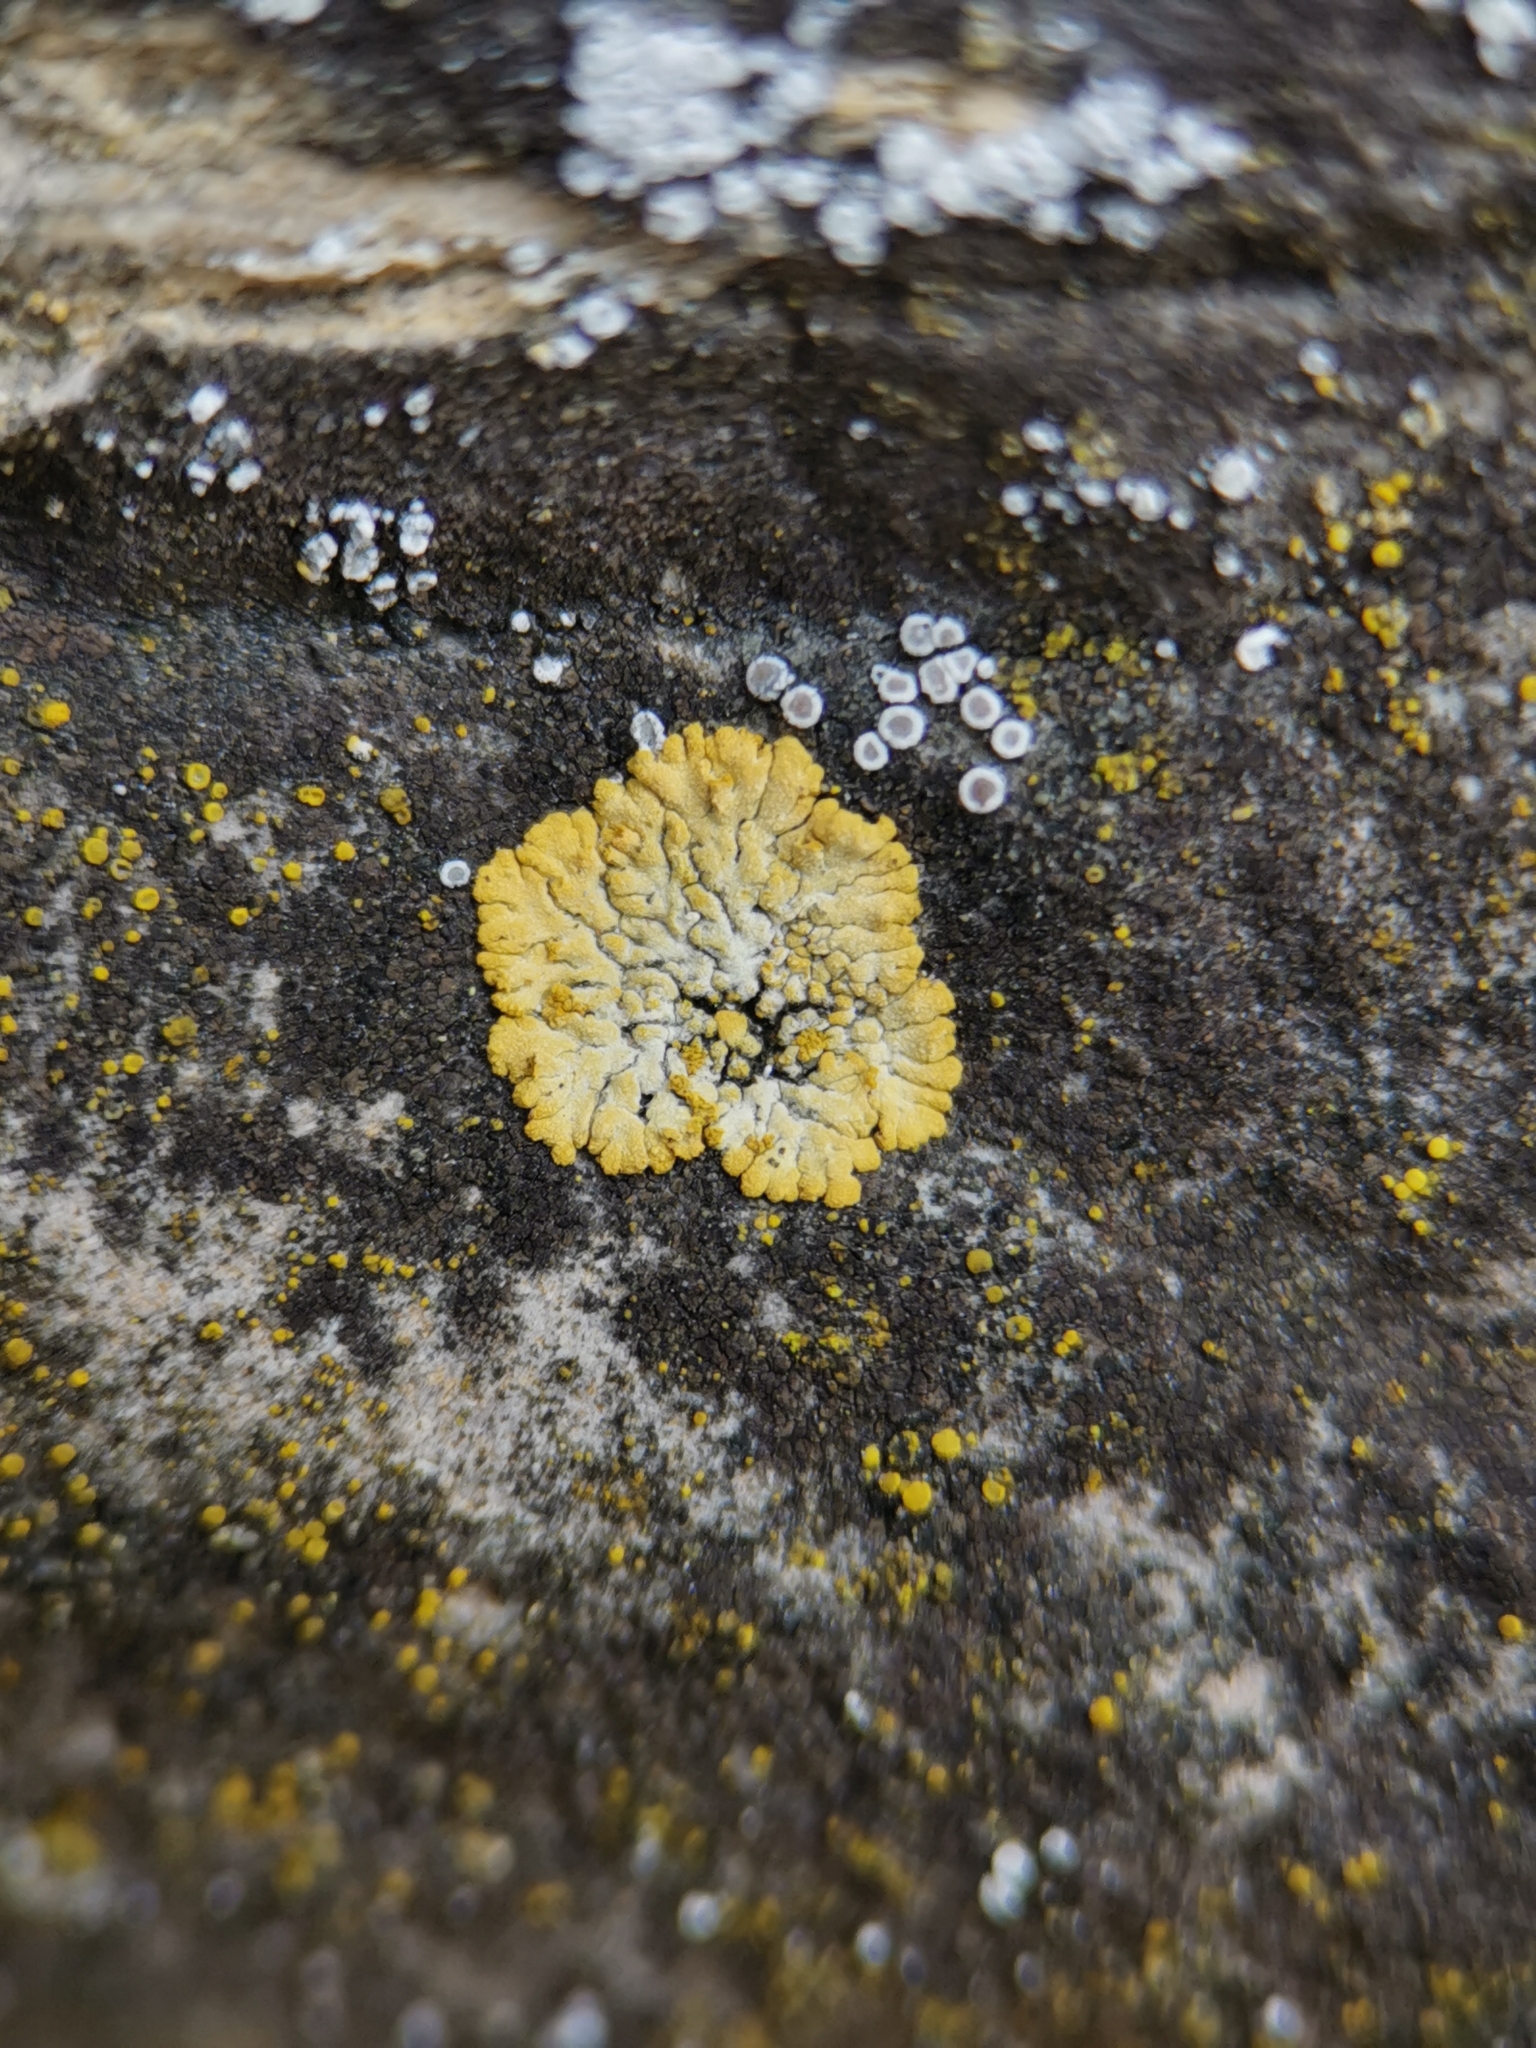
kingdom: Fungi
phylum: Ascomycota
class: Lecanoromycetes
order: Teloschistales
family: Teloschistaceae
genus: Calogaya
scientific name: Calogaya decipiens
